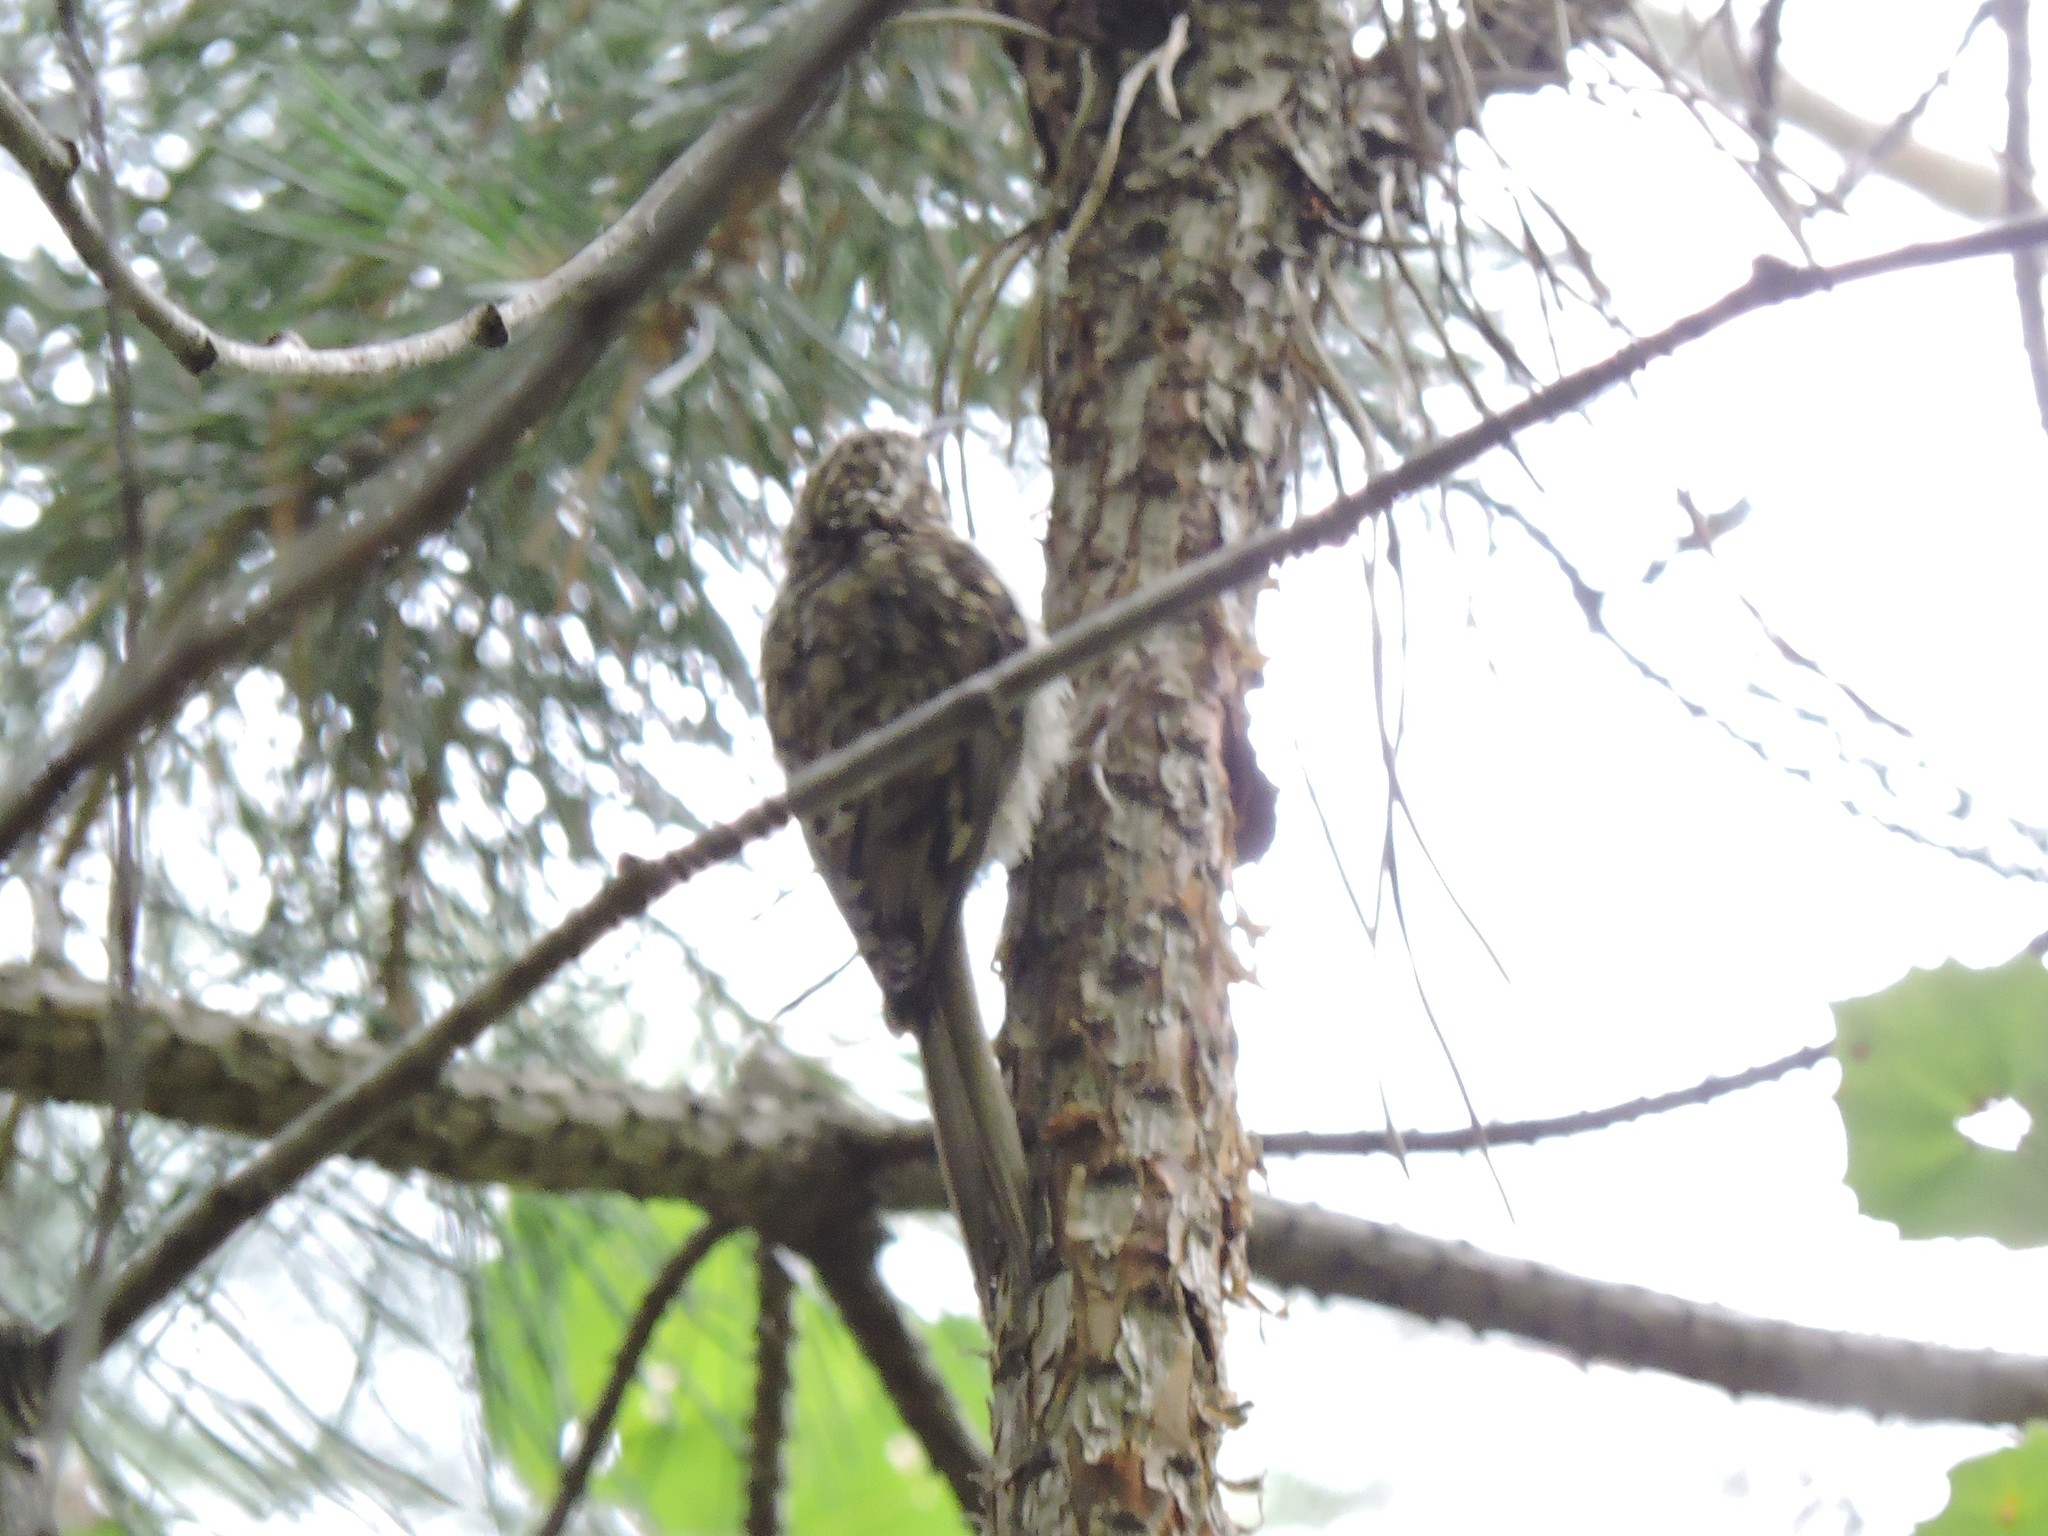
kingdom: Animalia
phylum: Chordata
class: Aves
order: Passeriformes
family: Certhiidae
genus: Certhia
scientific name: Certhia familiaris
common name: Eurasian treecreeper
